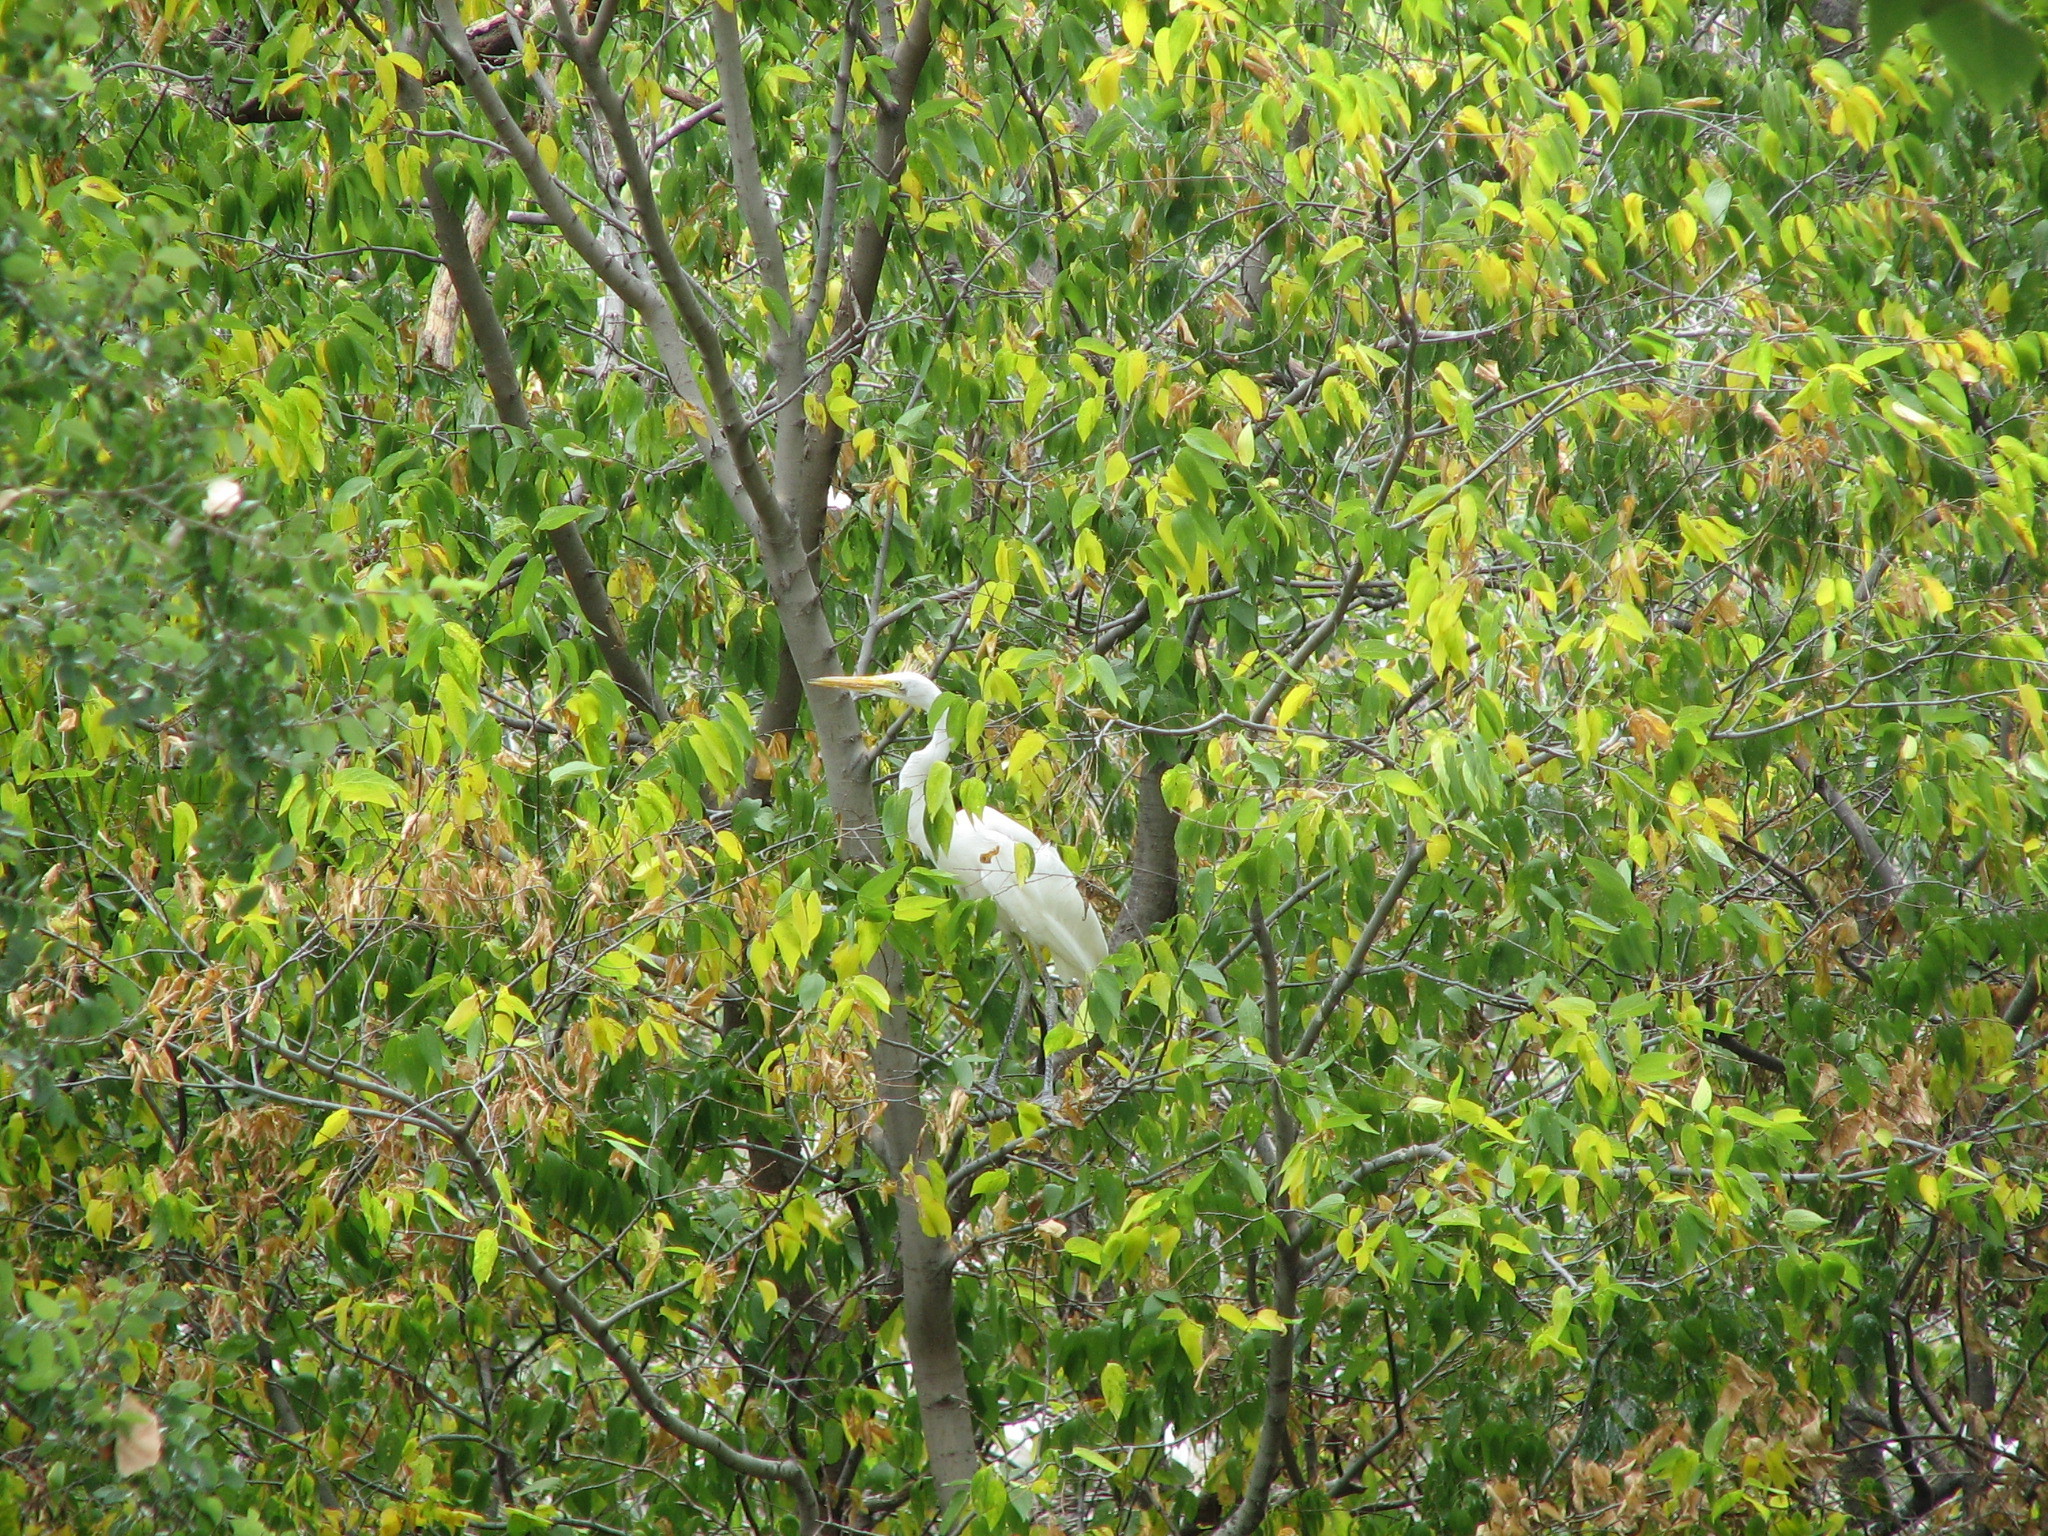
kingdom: Animalia
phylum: Chordata
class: Aves
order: Pelecaniformes
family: Ardeidae
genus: Ardea
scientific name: Ardea alba
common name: Great egret
